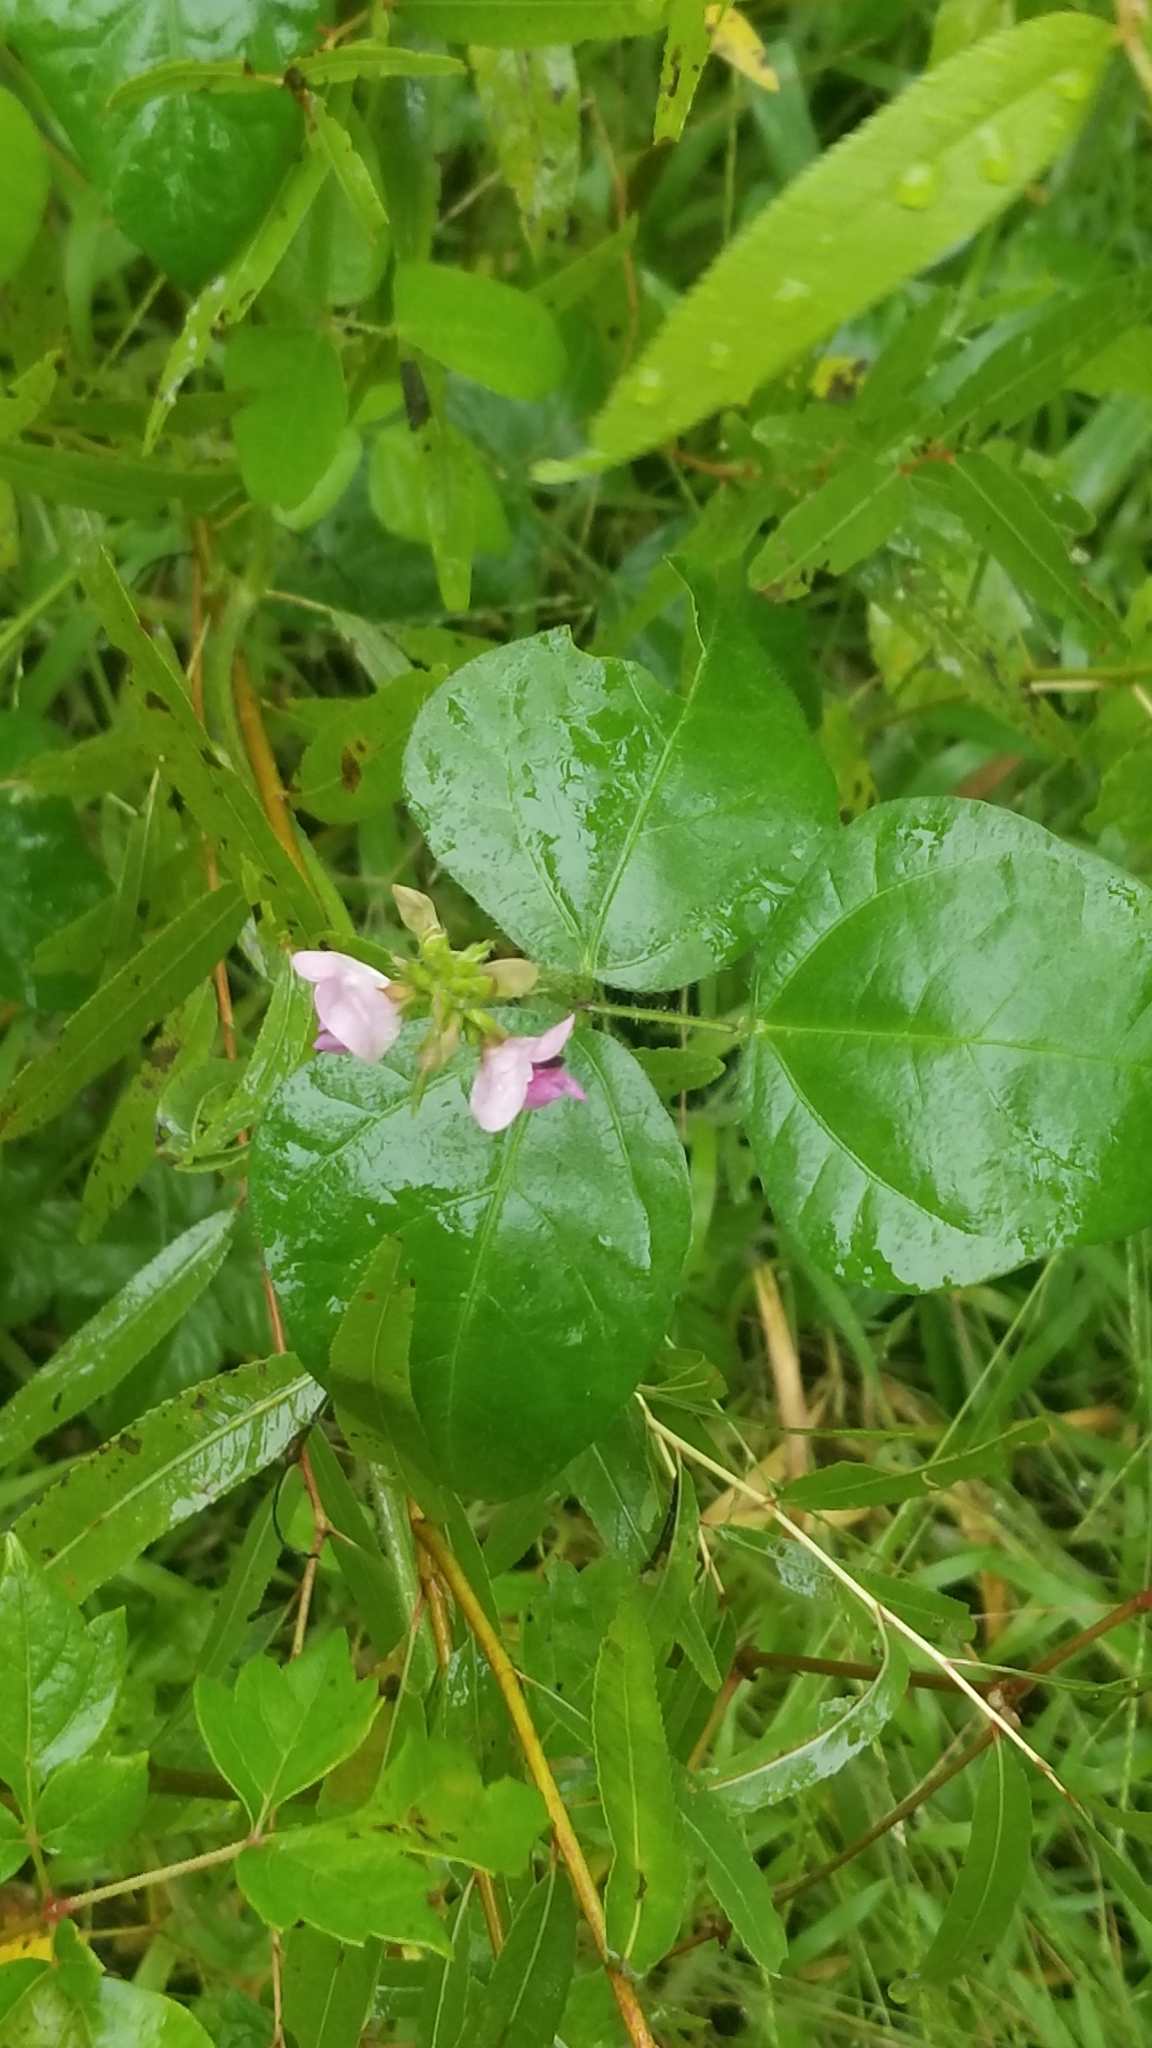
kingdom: Plantae
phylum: Tracheophyta
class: Magnoliopsida
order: Fabales
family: Fabaceae
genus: Strophostyles
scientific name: Strophostyles helvola
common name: Trailing wild bean
